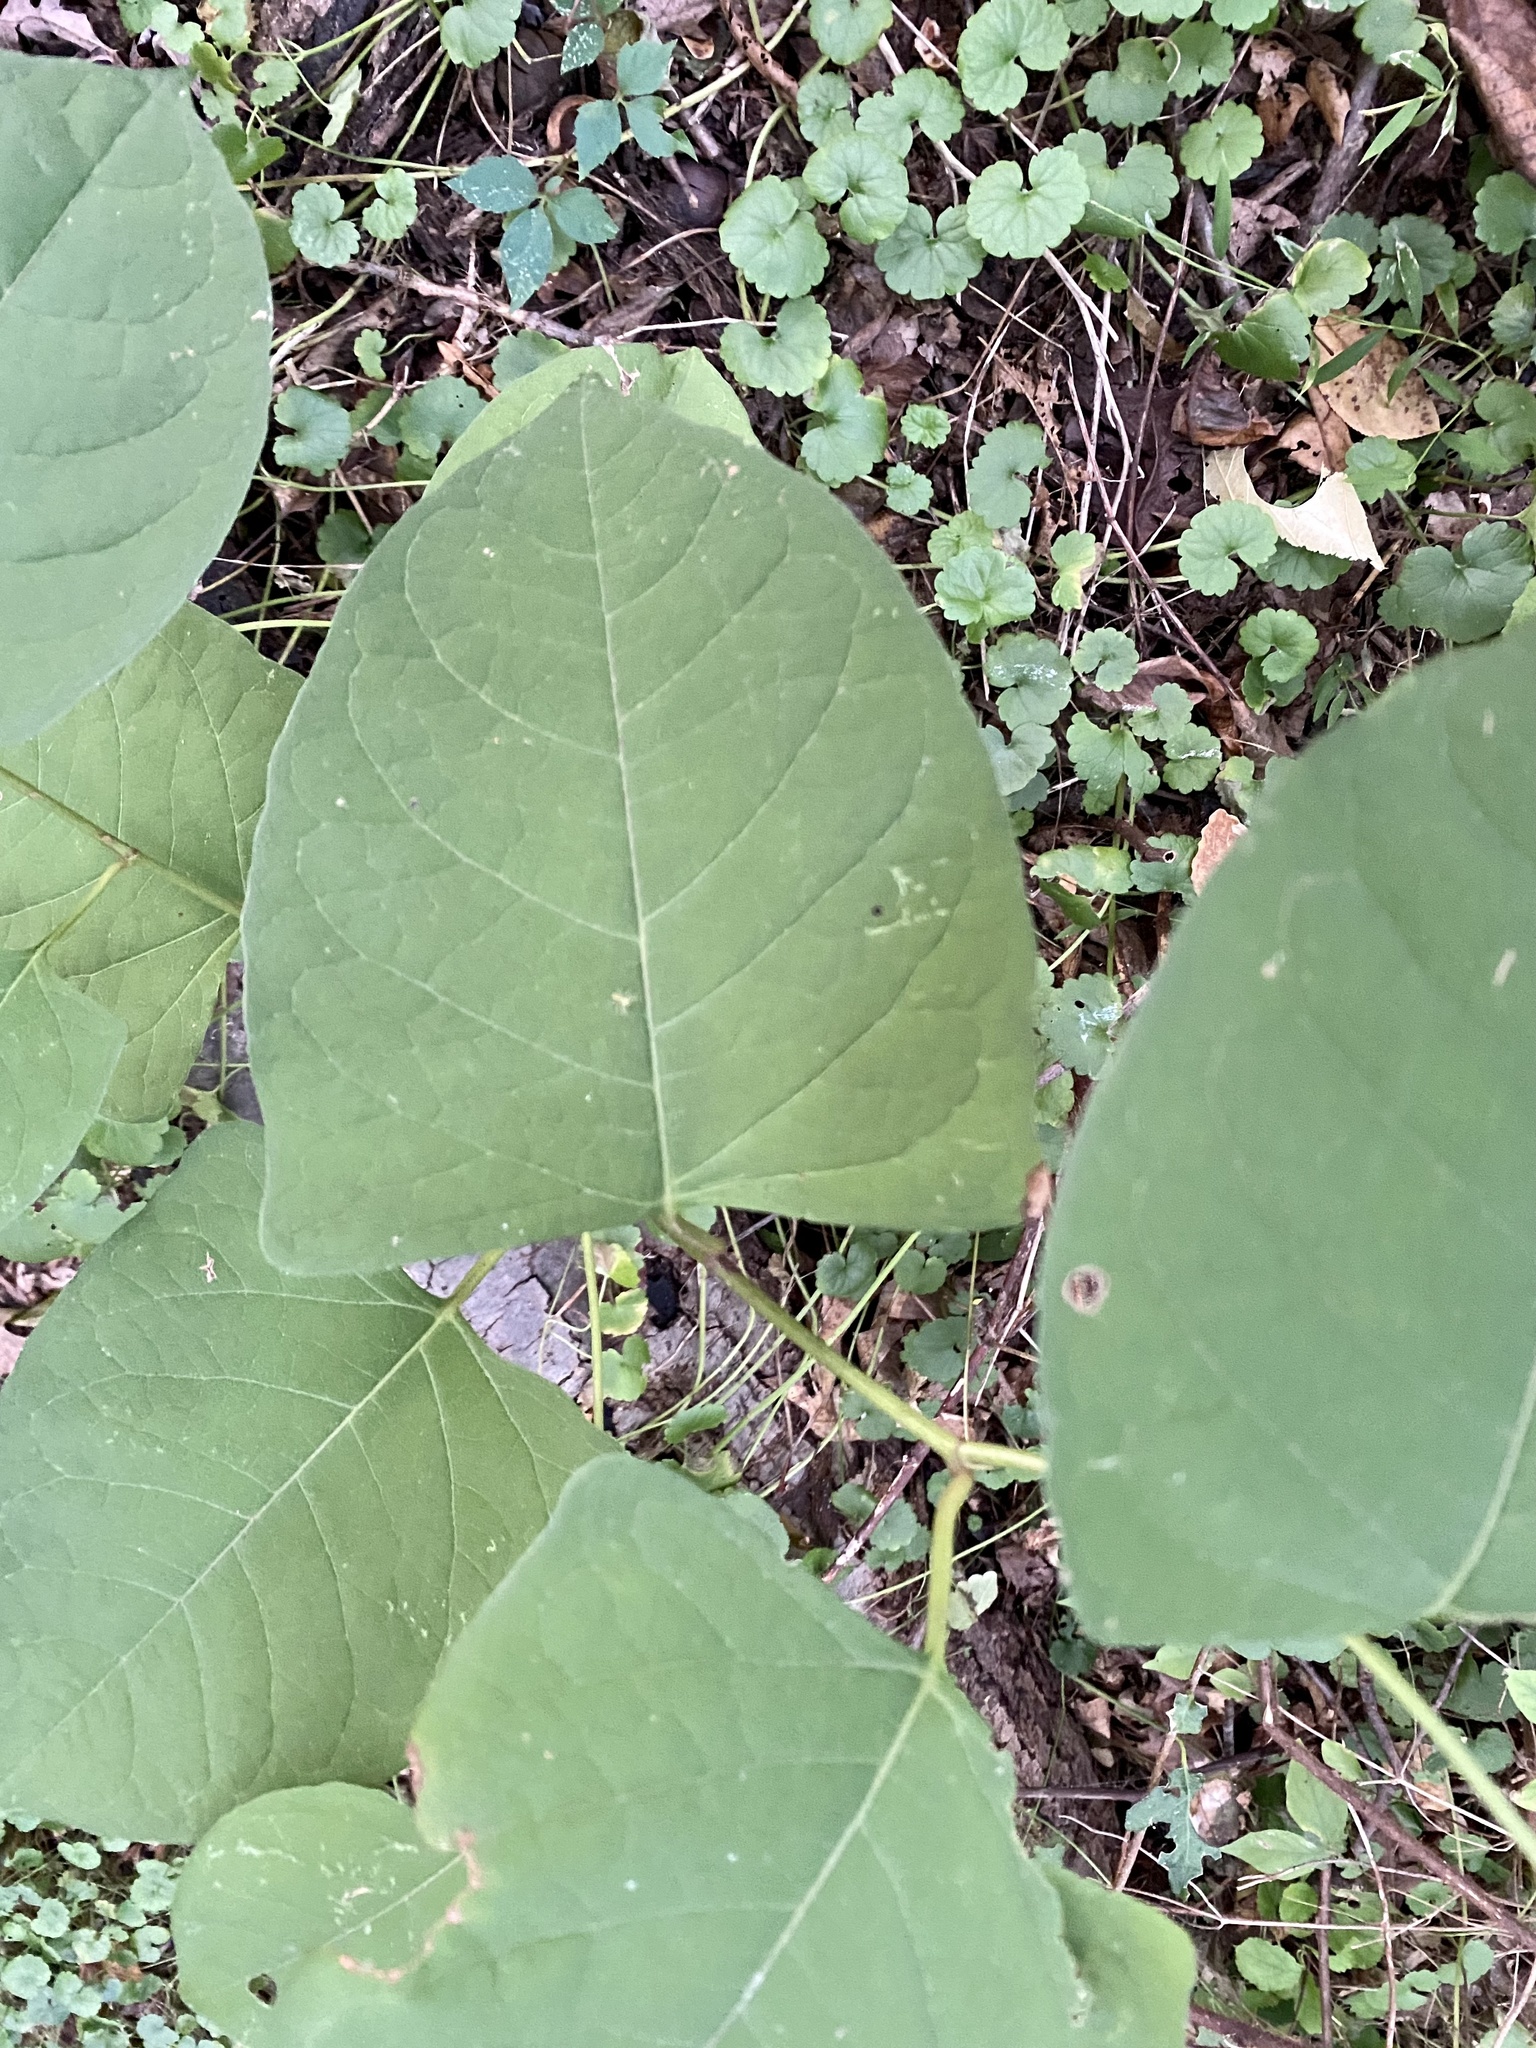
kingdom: Plantae
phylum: Tracheophyta
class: Magnoliopsida
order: Caryophyllales
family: Polygonaceae
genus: Reynoutria
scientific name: Reynoutria japonica
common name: Japanese knotweed
